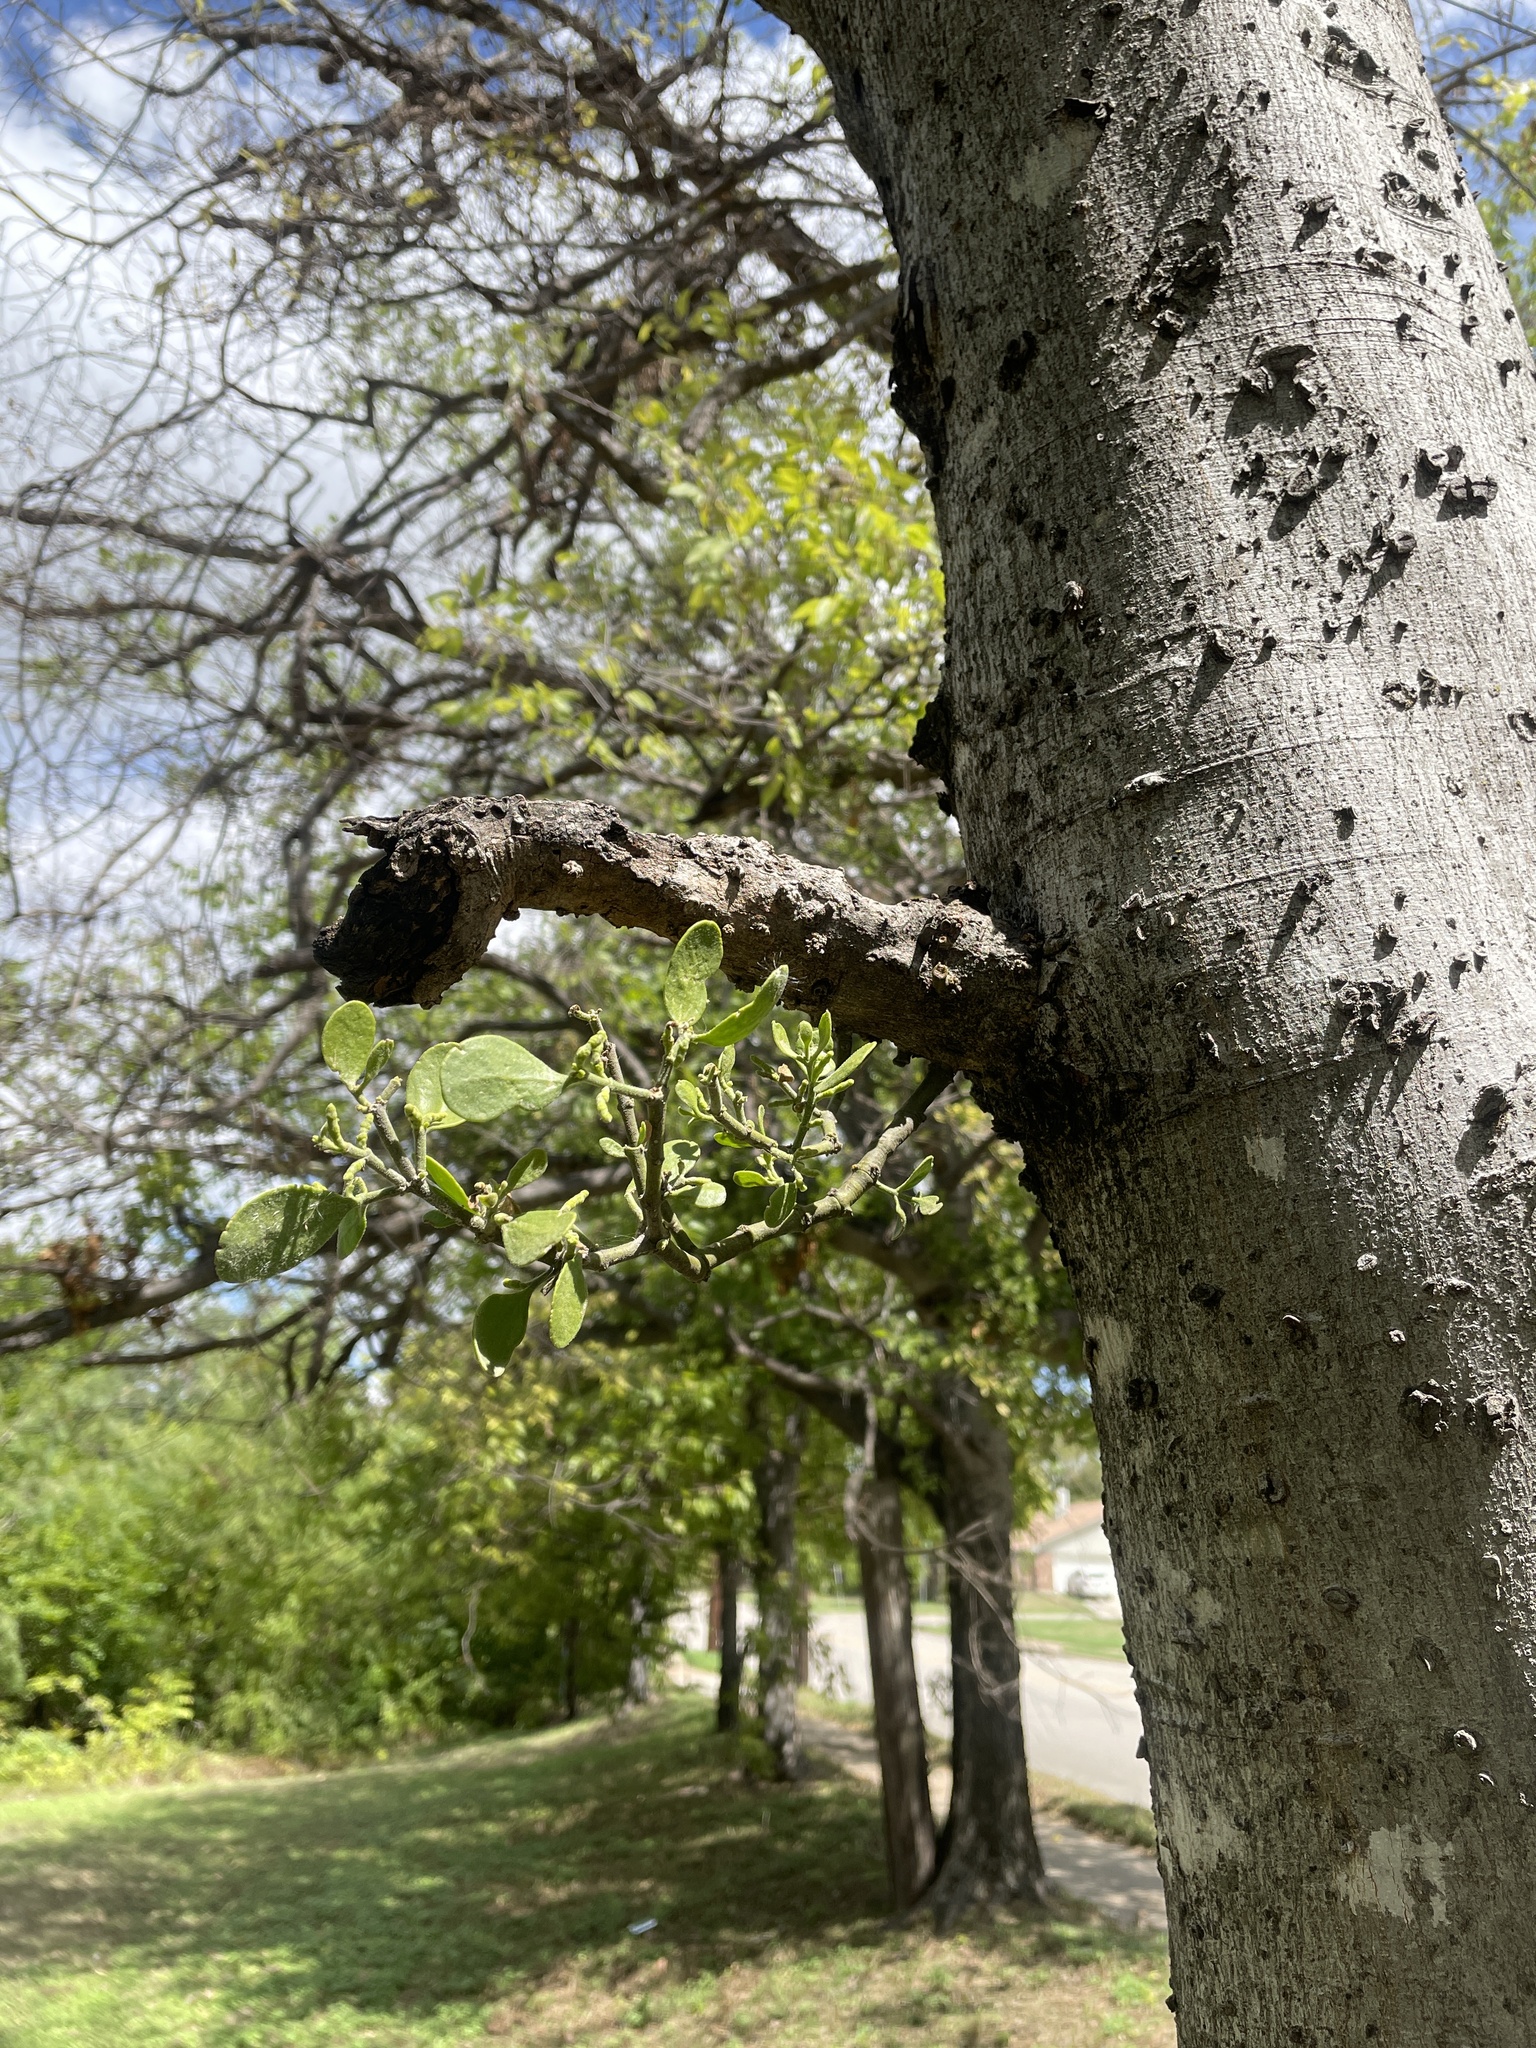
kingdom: Plantae
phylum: Tracheophyta
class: Magnoliopsida
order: Santalales
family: Viscaceae
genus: Phoradendron
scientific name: Phoradendron leucarpum
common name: Pacific mistletoe
